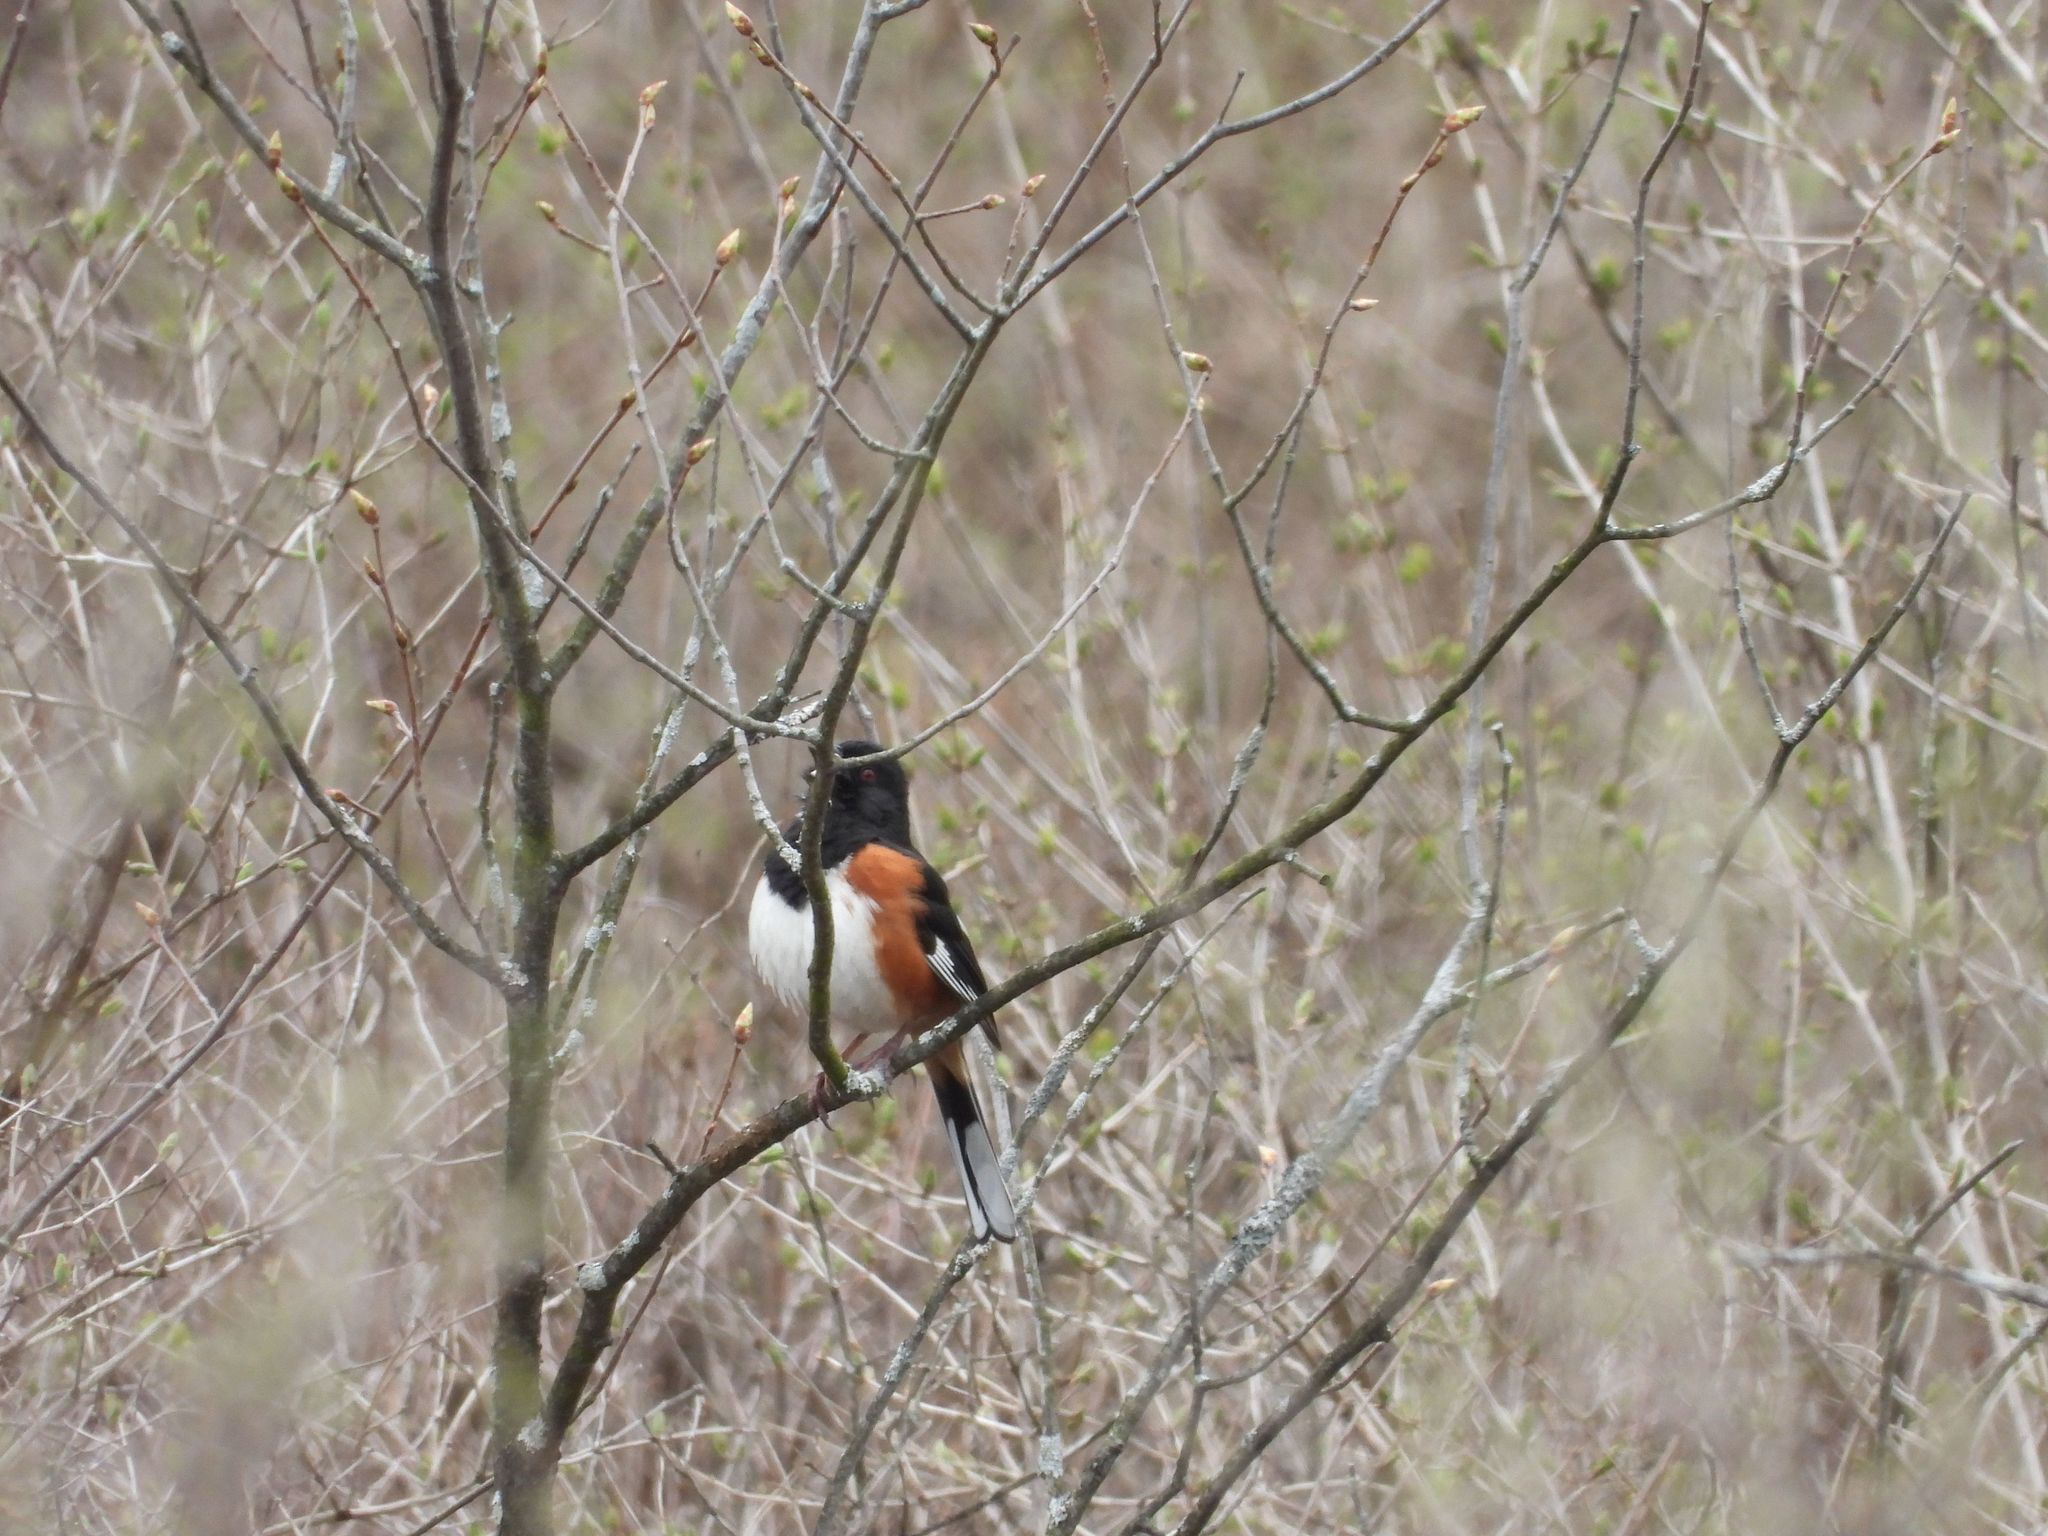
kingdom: Animalia
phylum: Chordata
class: Aves
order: Passeriformes
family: Passerellidae
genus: Pipilo
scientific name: Pipilo erythrophthalmus
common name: Eastern towhee
